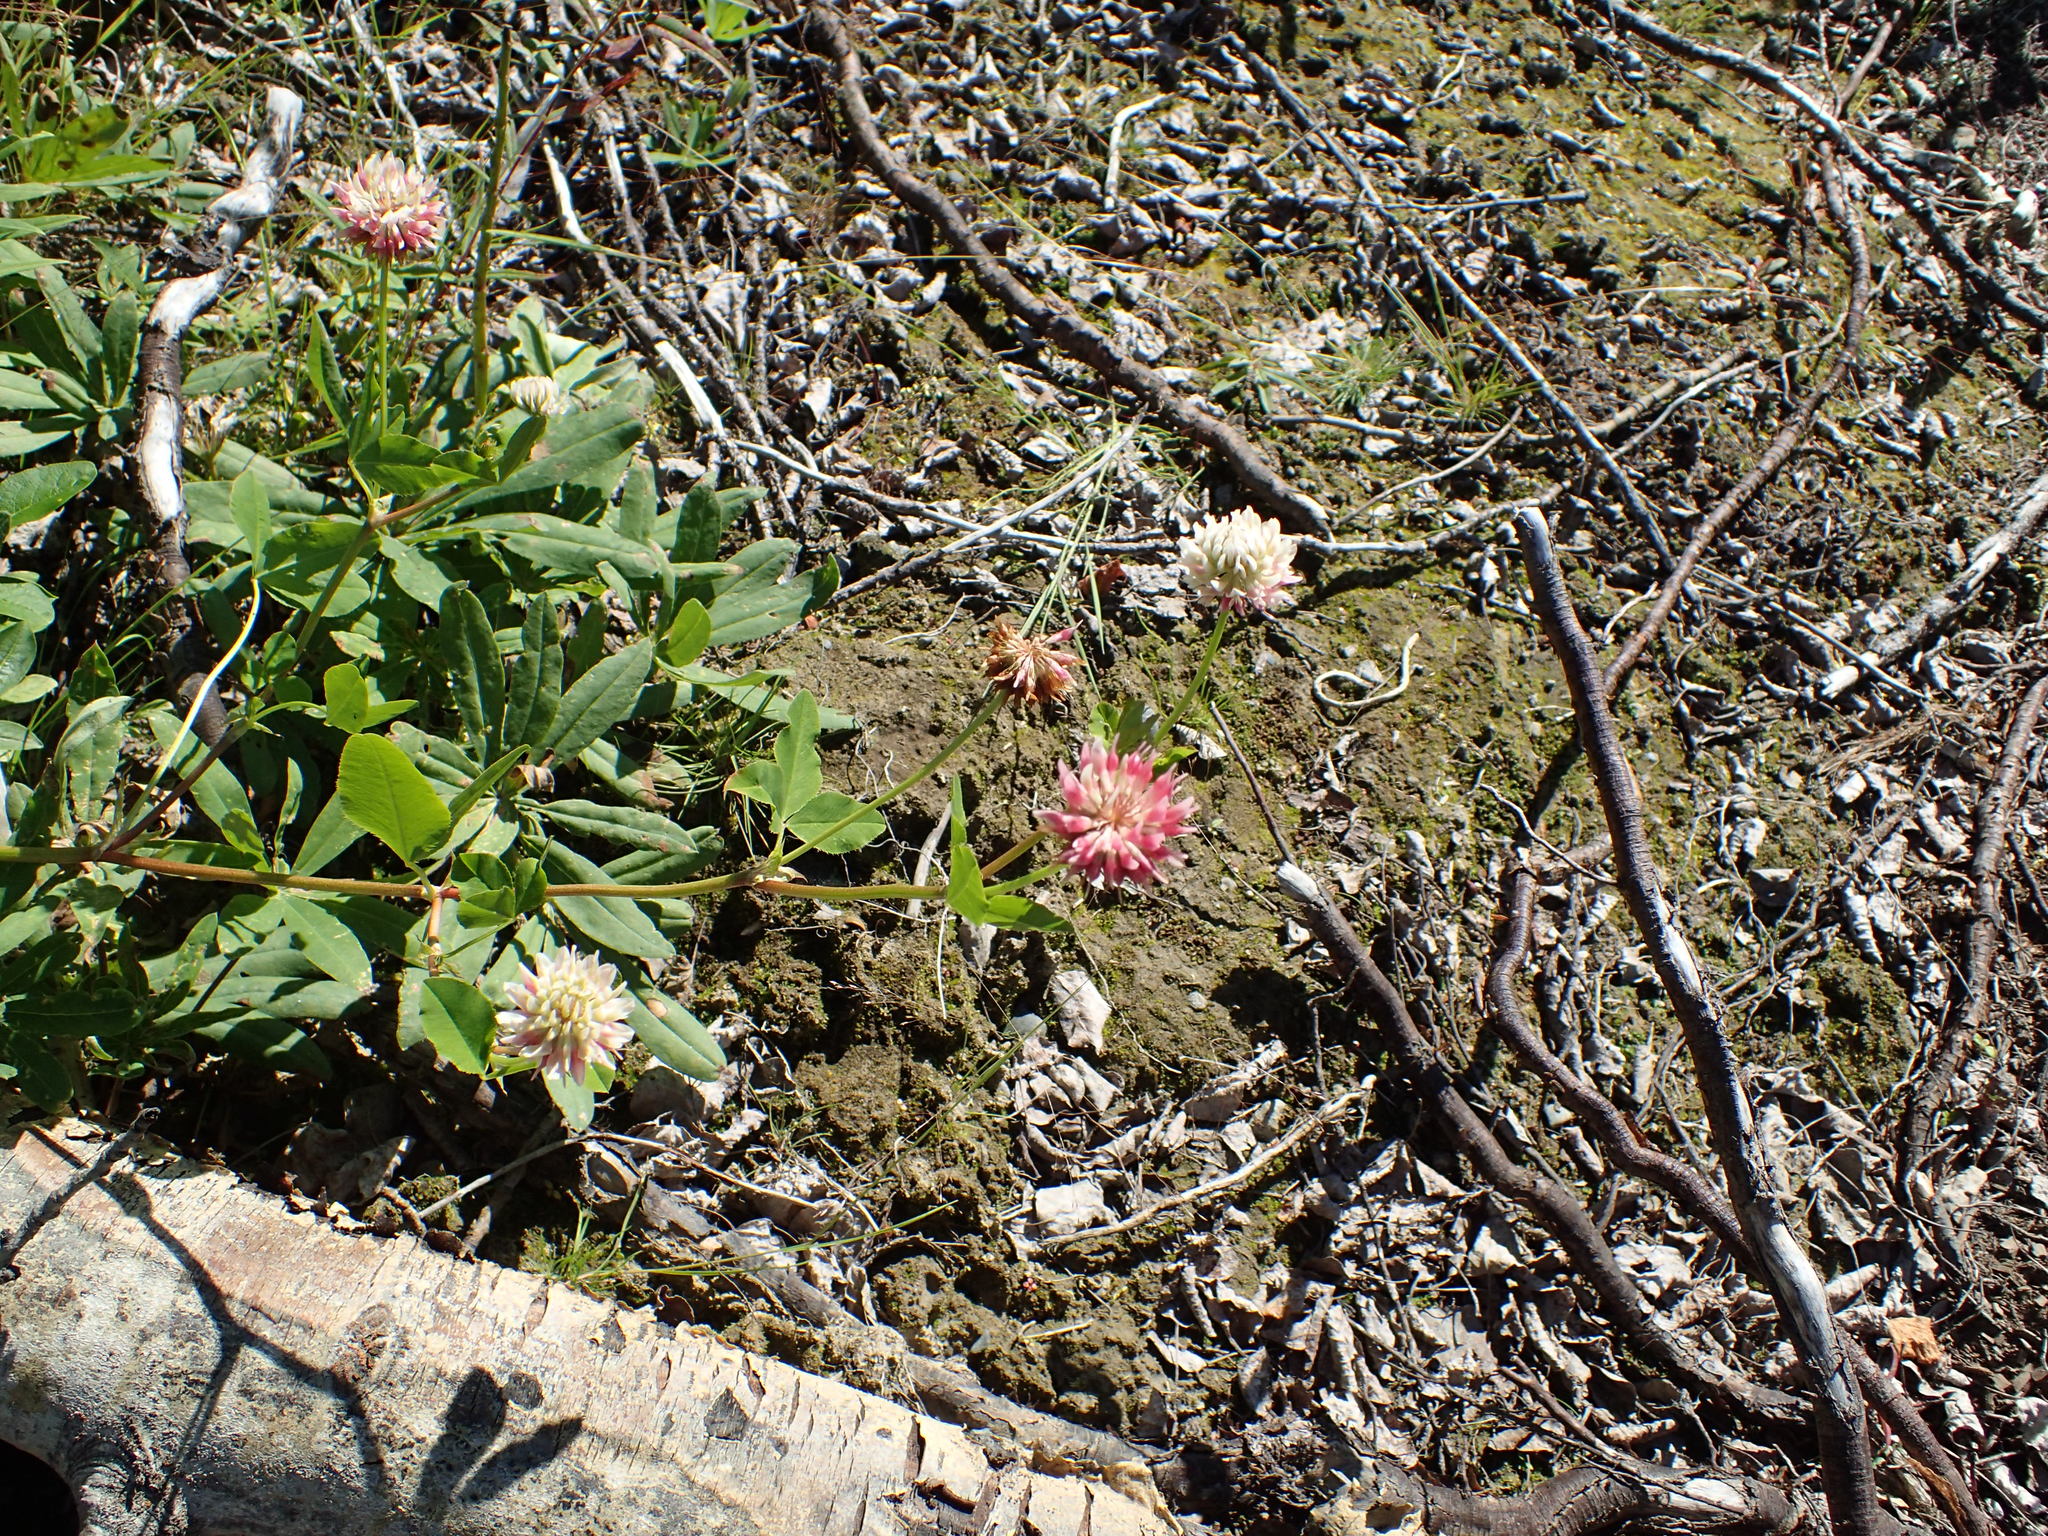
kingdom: Plantae
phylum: Tracheophyta
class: Magnoliopsida
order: Fabales
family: Fabaceae
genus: Trifolium
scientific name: Trifolium hybridum
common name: Alsike clover
